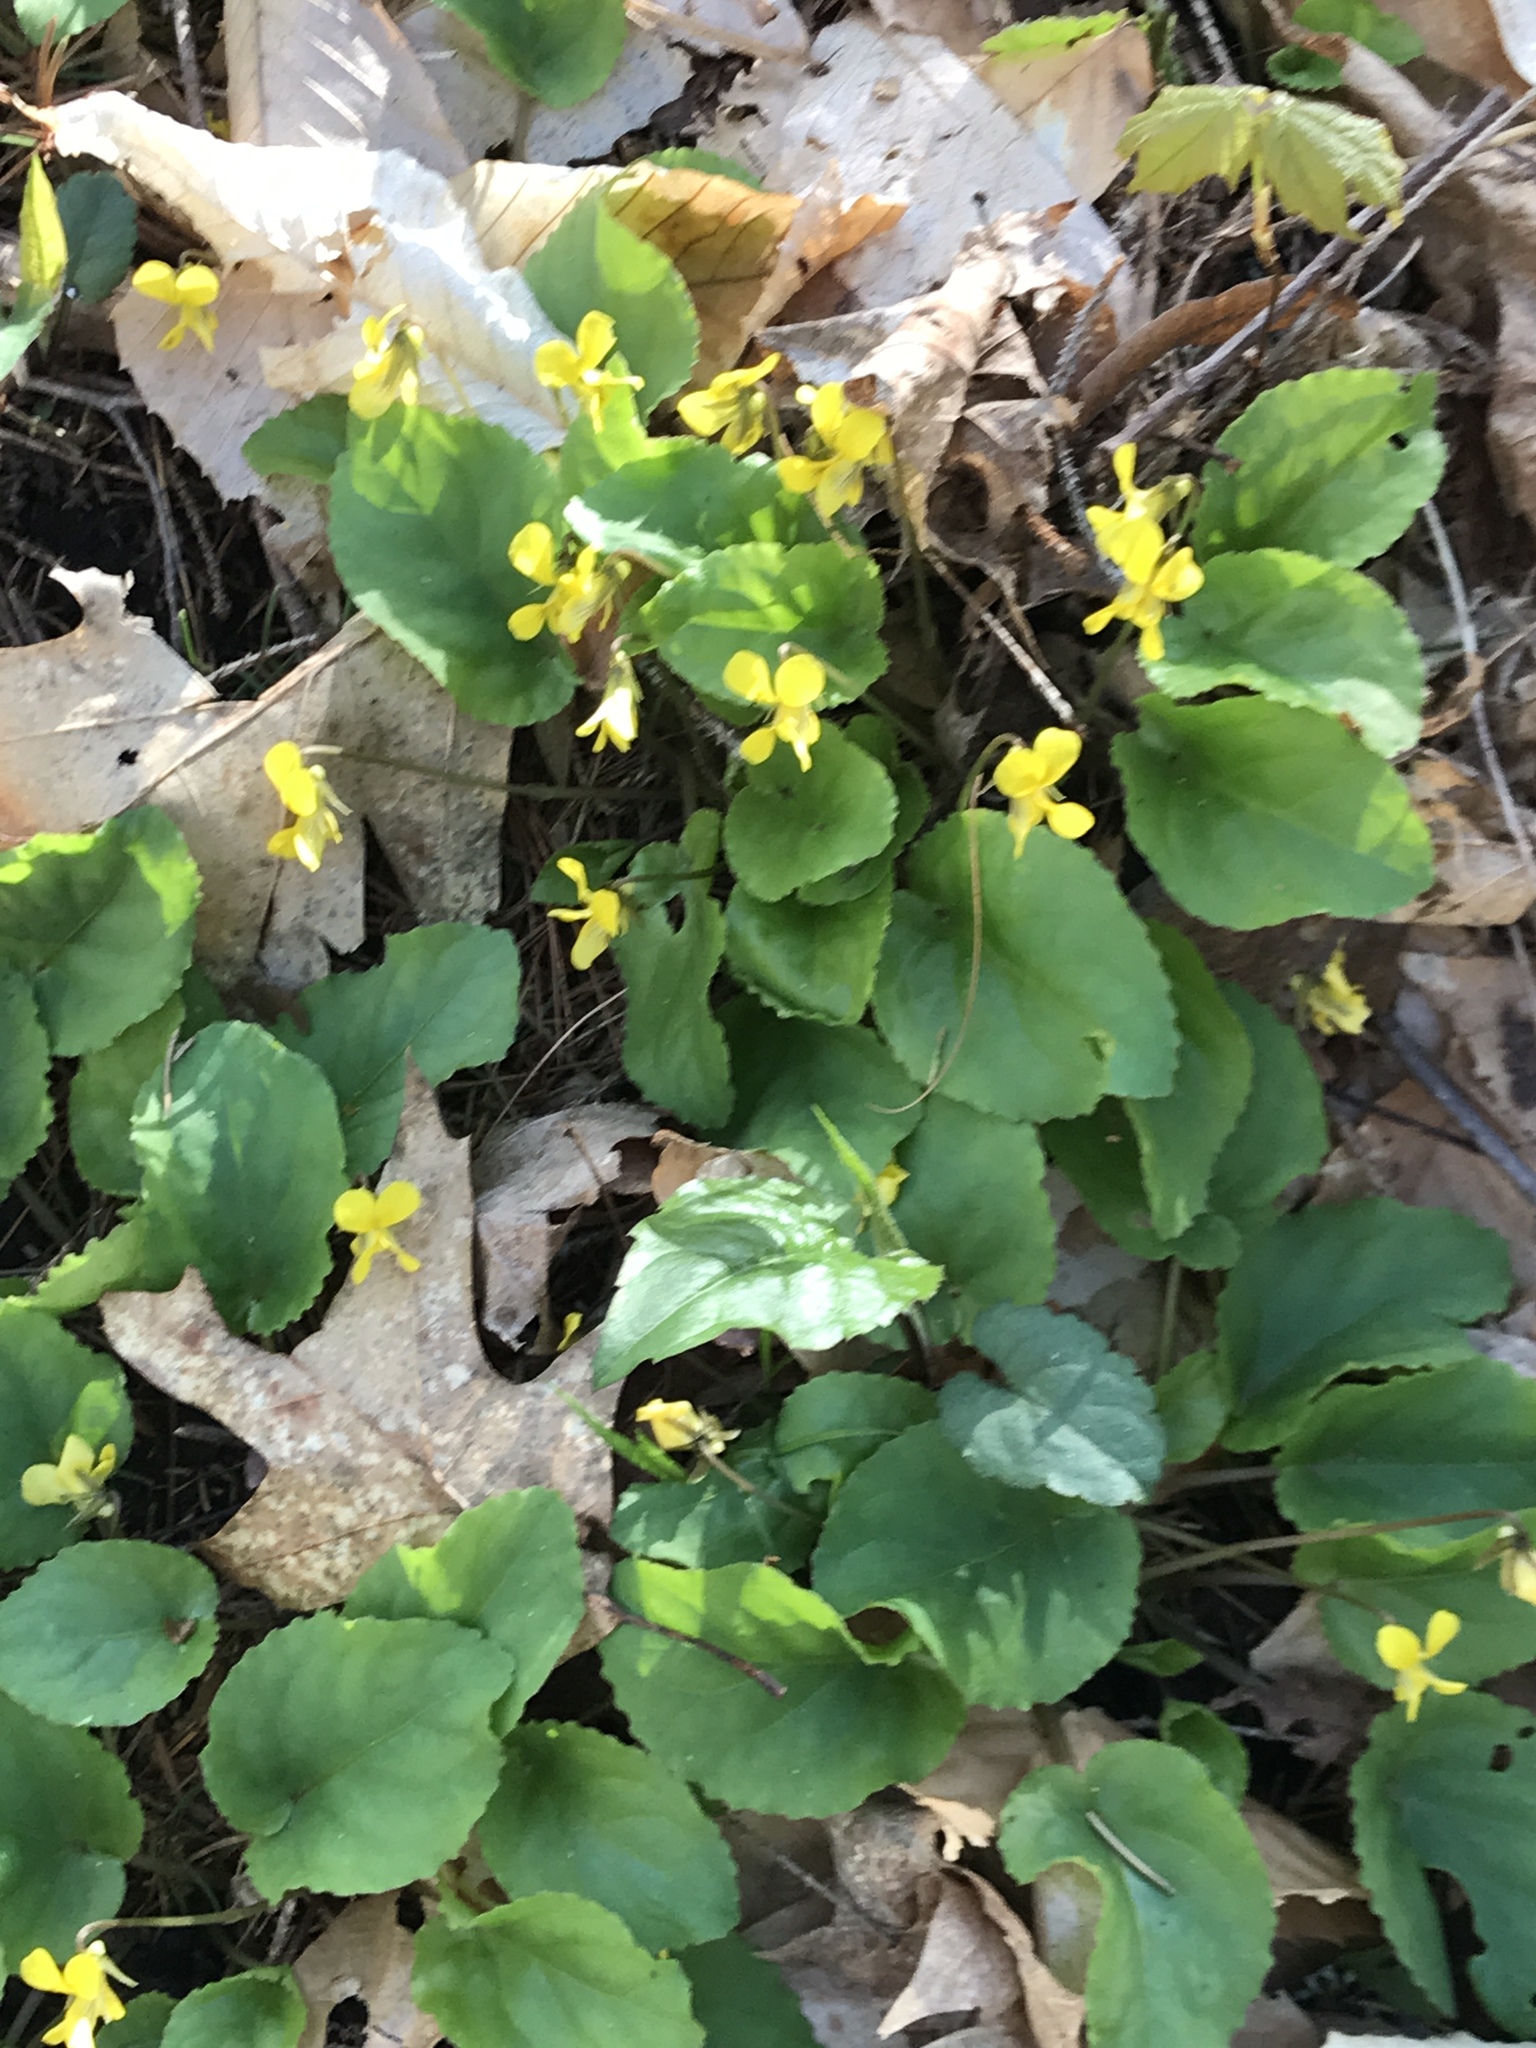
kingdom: Plantae
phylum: Tracheophyta
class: Magnoliopsida
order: Malpighiales
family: Violaceae
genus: Viola
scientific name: Viola rotundifolia
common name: Early yellow violet
